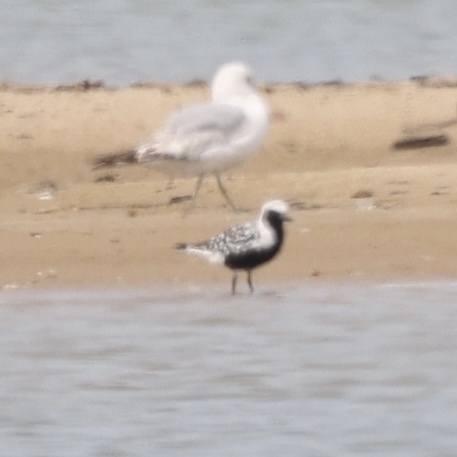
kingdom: Animalia
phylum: Chordata
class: Aves
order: Charadriiformes
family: Charadriidae
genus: Pluvialis
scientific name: Pluvialis squatarola
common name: Grey plover
